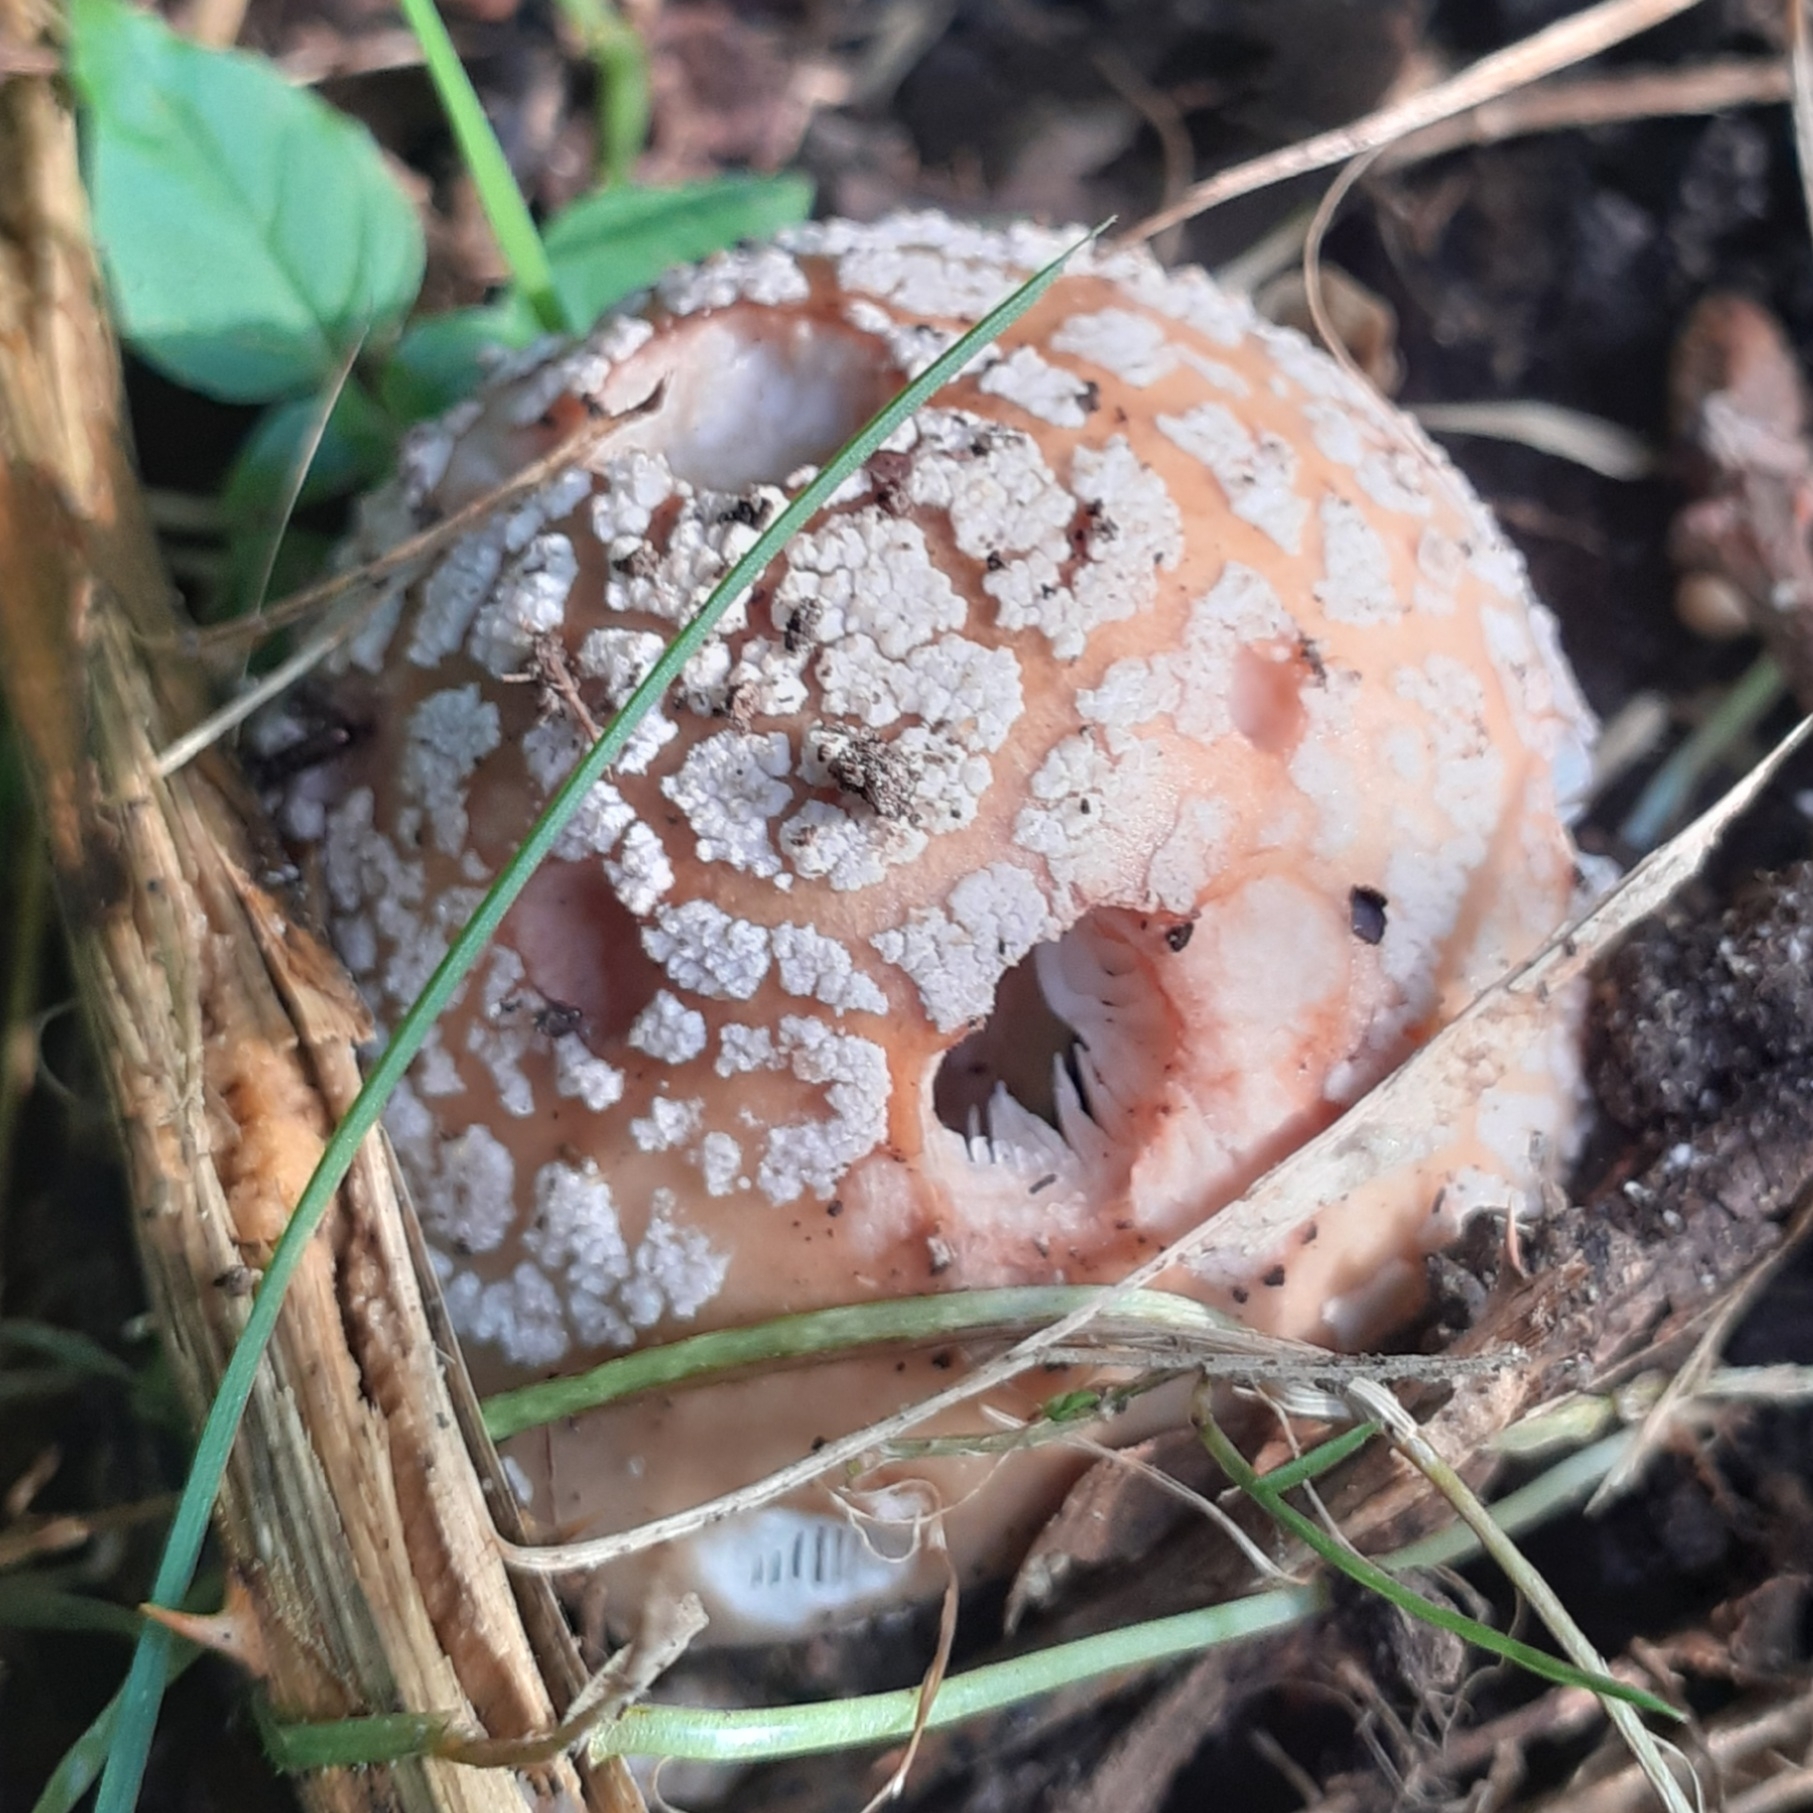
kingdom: Fungi
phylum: Basidiomycota
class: Agaricomycetes
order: Agaricales
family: Amanitaceae
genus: Amanita
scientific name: Amanita rubescens
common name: Blusher
